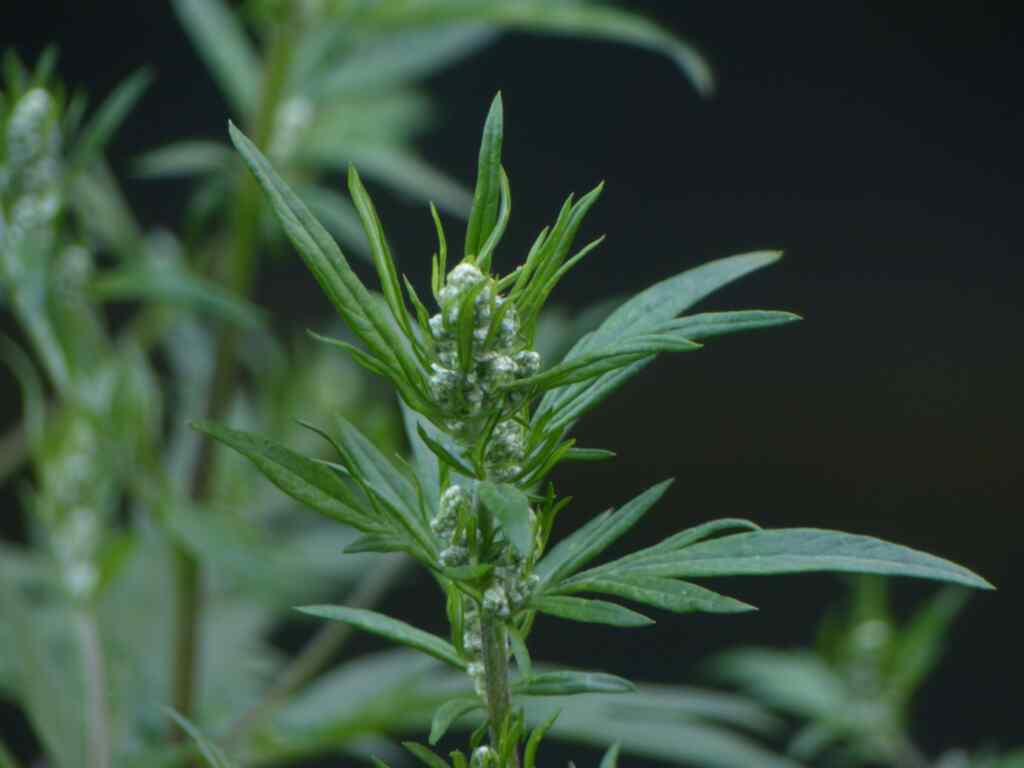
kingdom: Plantae
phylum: Tracheophyta
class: Magnoliopsida
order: Asterales
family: Asteraceae
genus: Artemisia
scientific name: Artemisia vulgaris
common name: Mugwort
